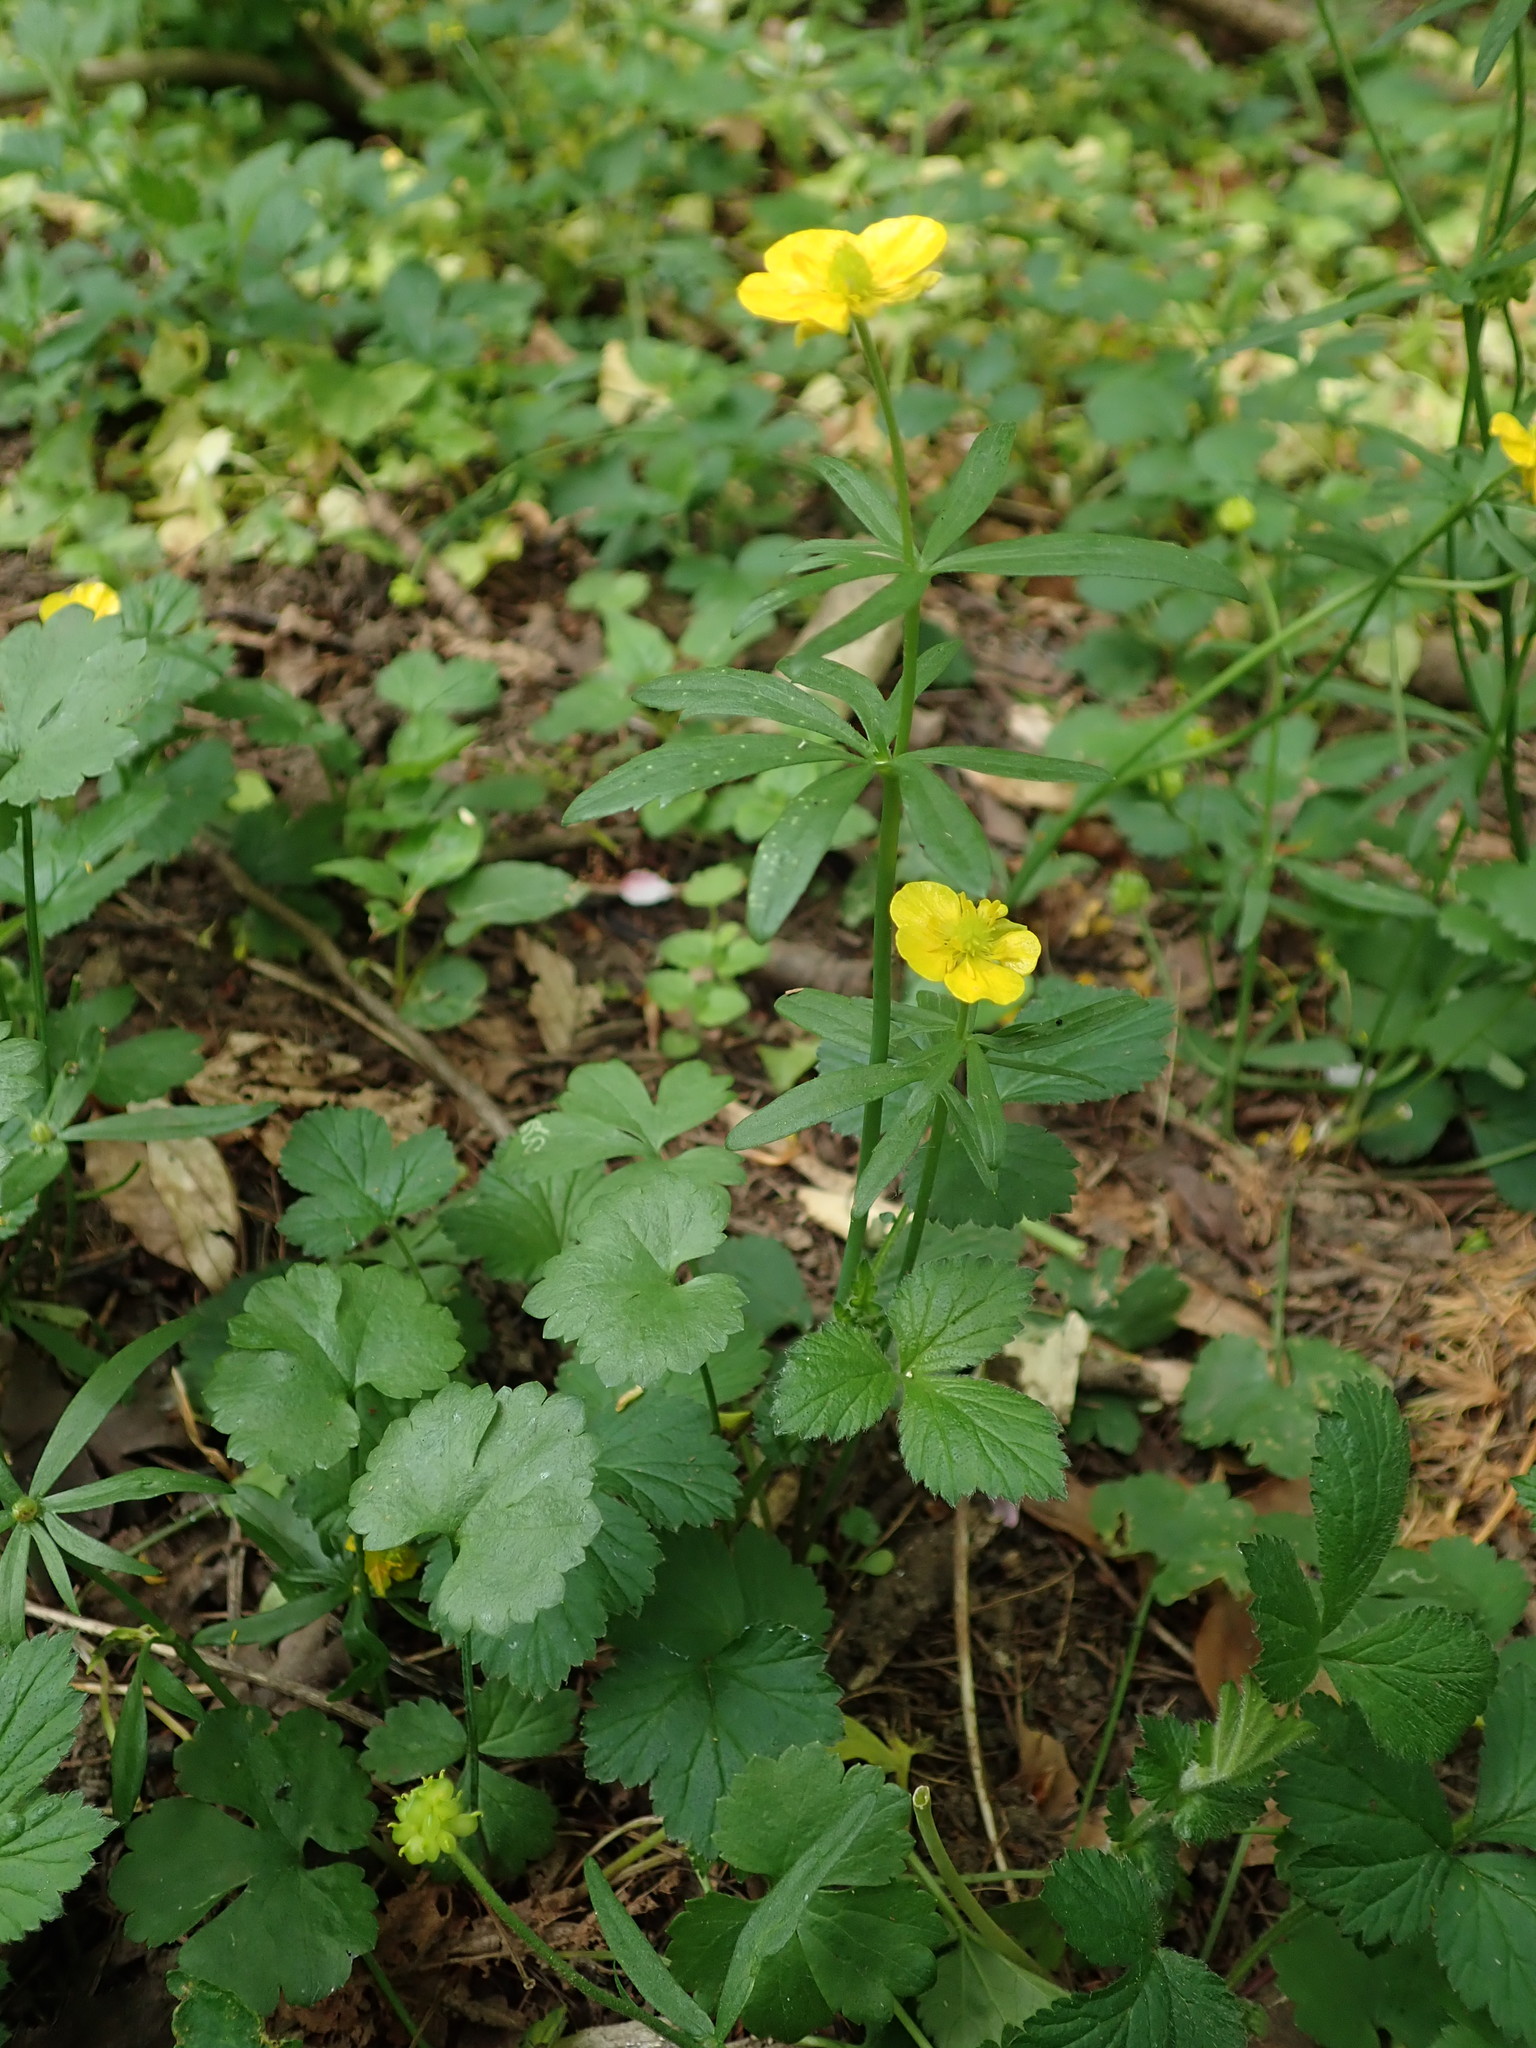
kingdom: Plantae
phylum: Tracheophyta
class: Magnoliopsida
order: Ranunculales
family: Ranunculaceae
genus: Ranunculus
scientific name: Ranunculus auricomus
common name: Goldilocks buttercup
